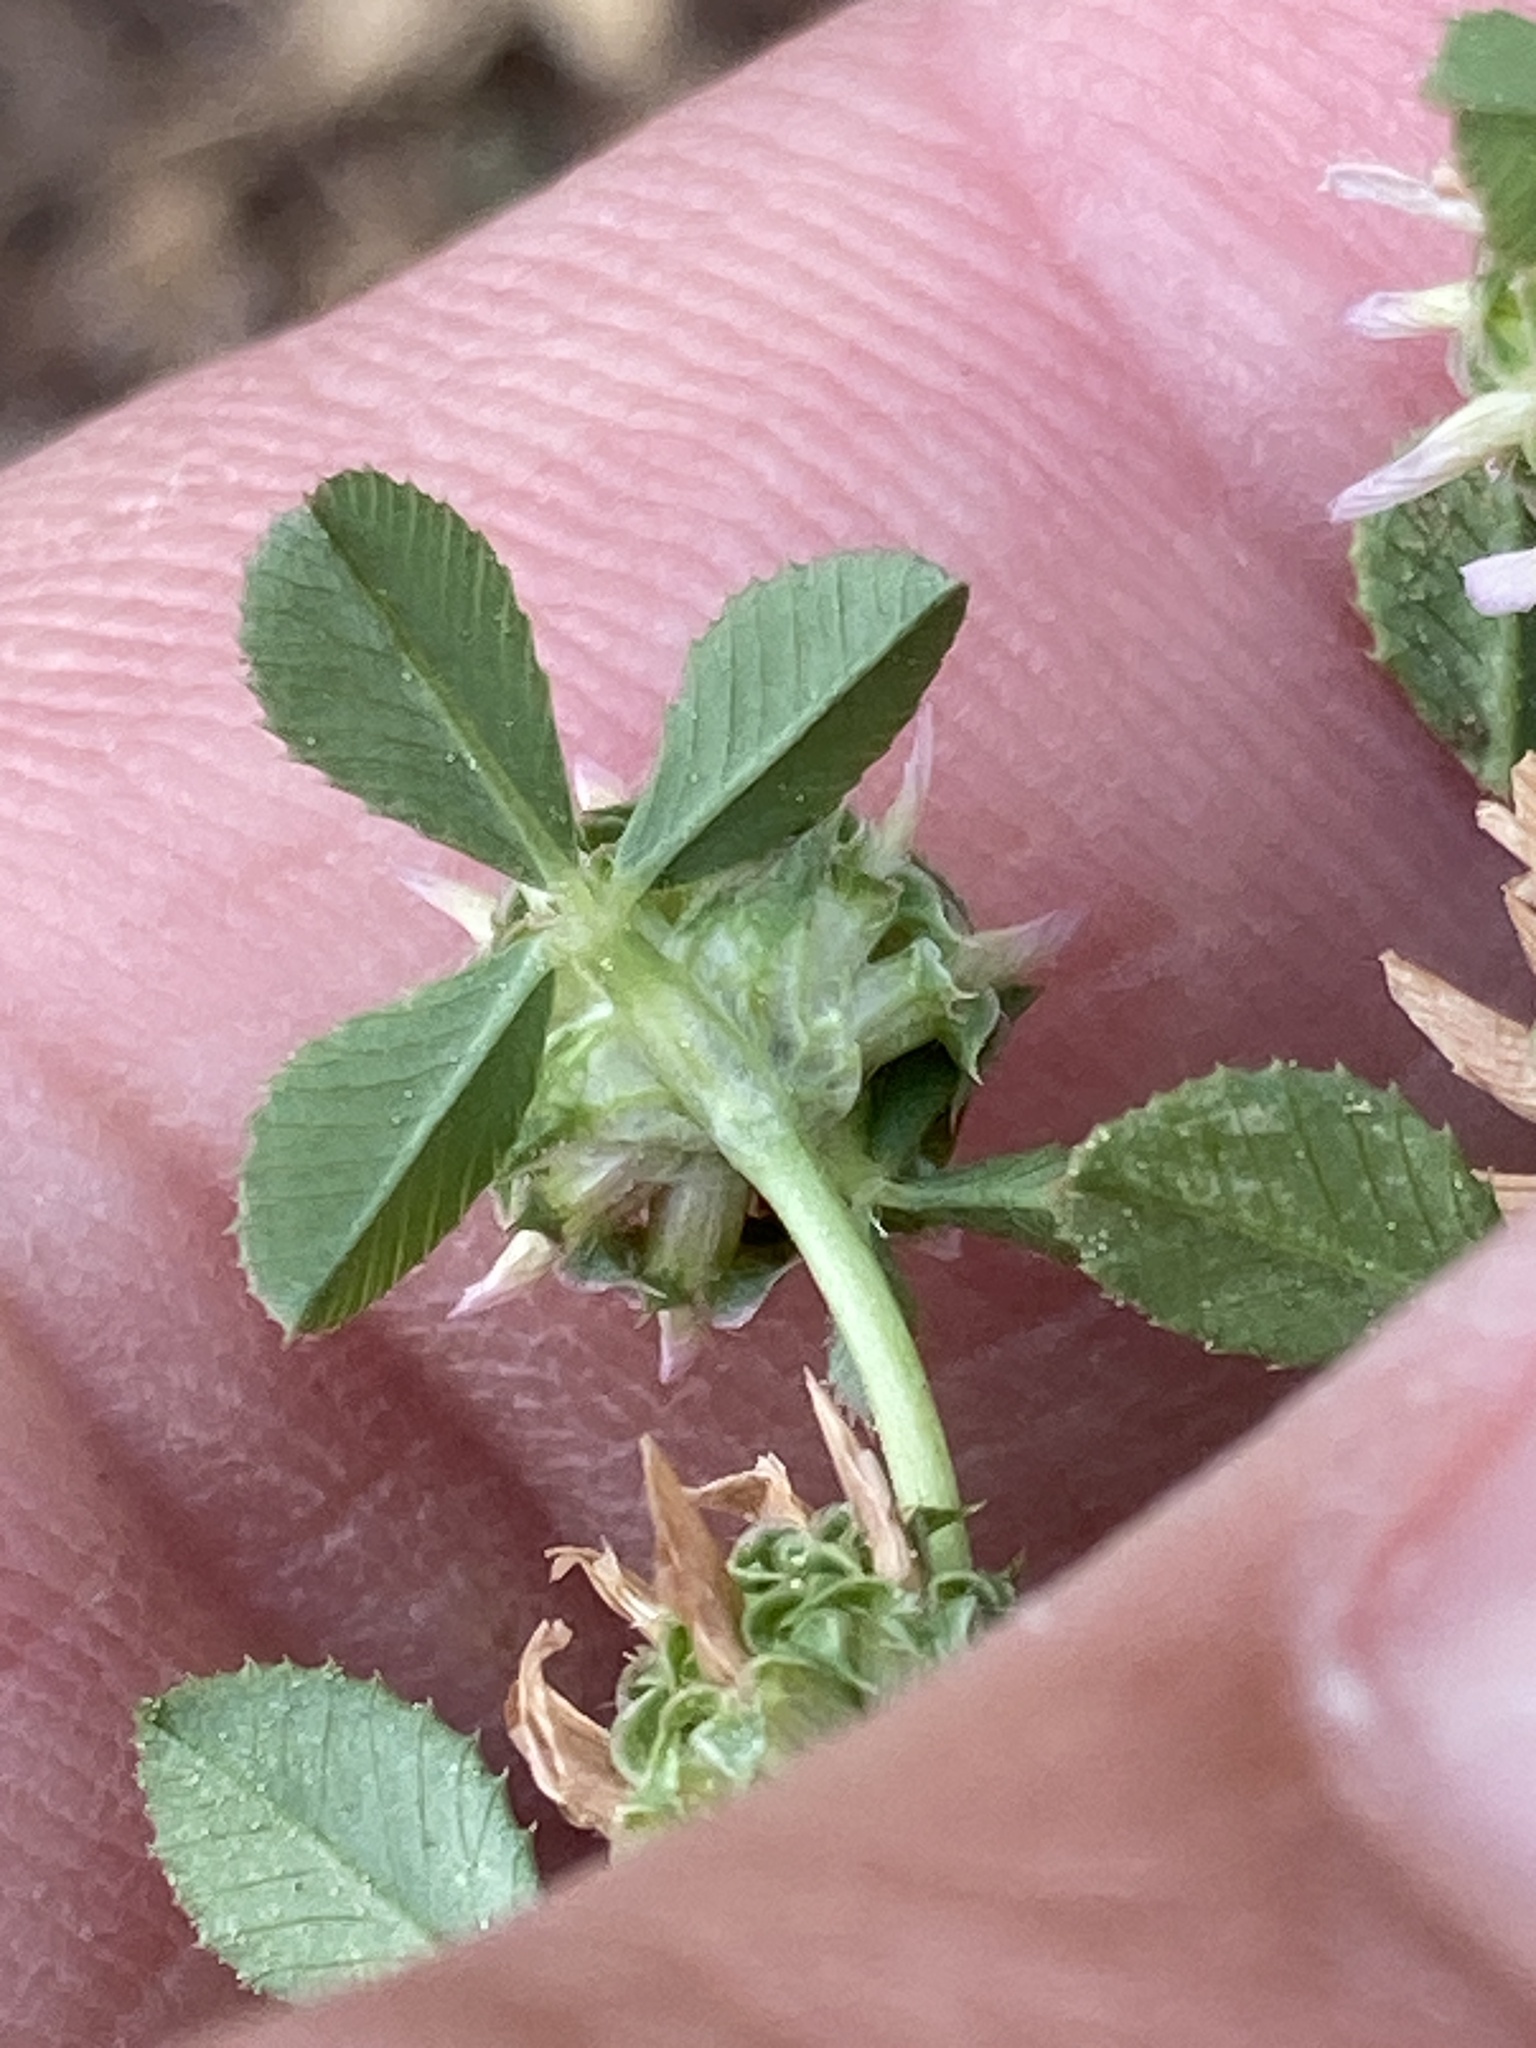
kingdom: Plantae
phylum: Tracheophyta
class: Magnoliopsida
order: Fabales
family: Fabaceae
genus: Trifolium
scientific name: Trifolium glomeratum
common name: Clustered clover
